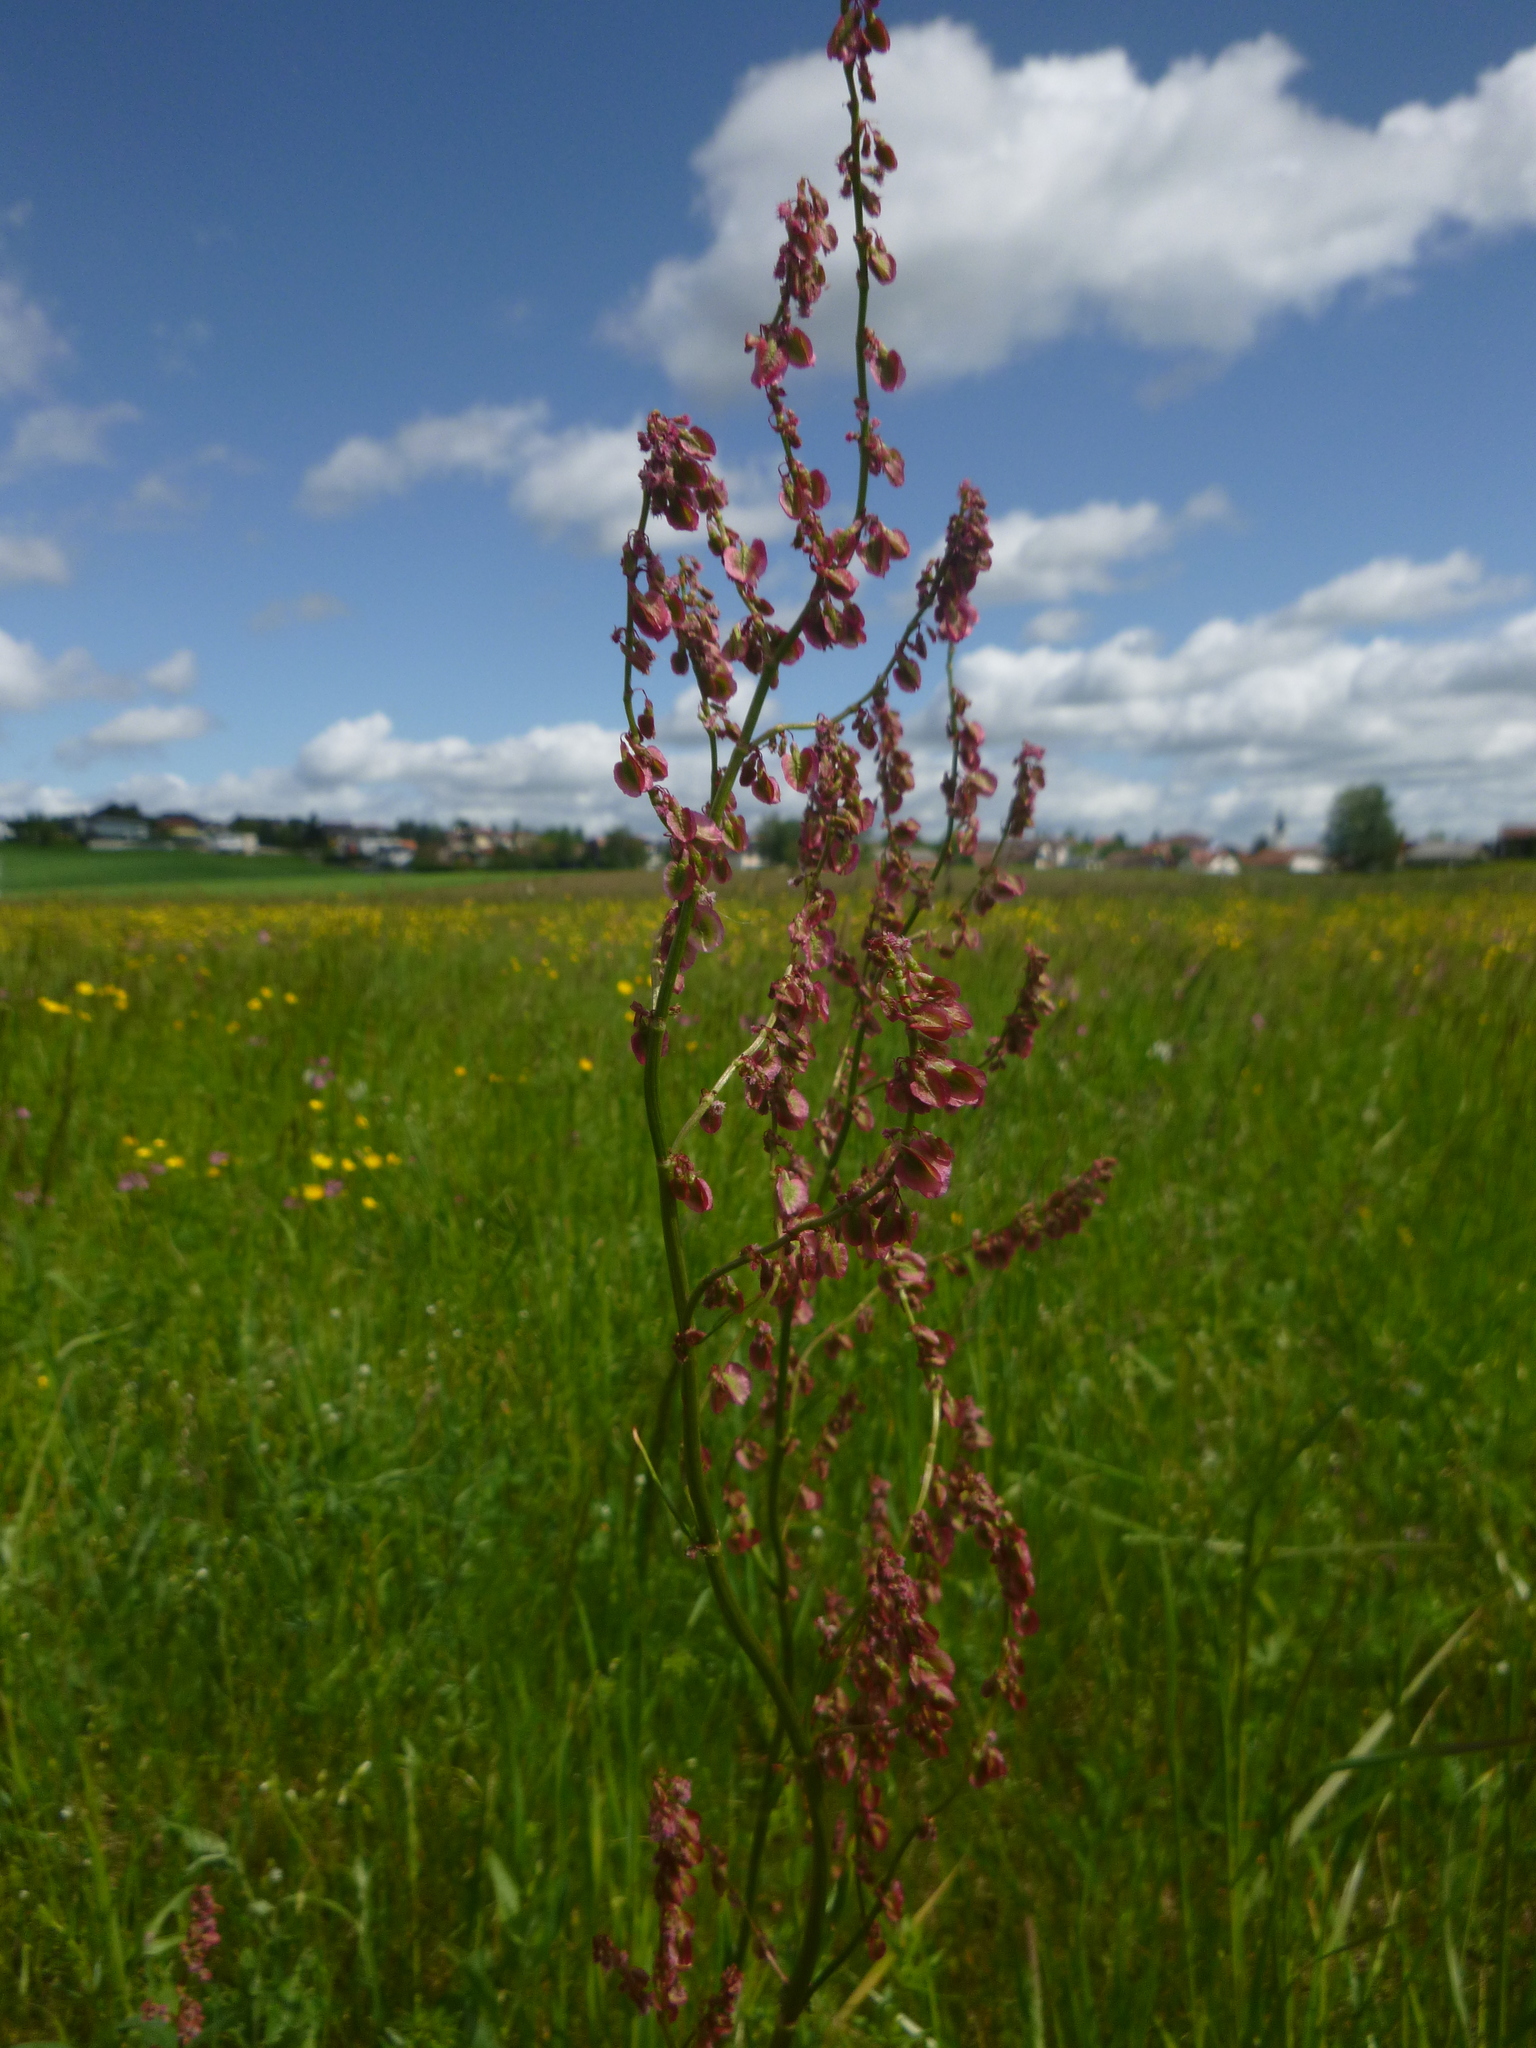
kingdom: Plantae
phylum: Tracheophyta
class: Magnoliopsida
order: Caryophyllales
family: Polygonaceae
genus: Rumex
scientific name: Rumex acetosa
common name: Garden sorrel
